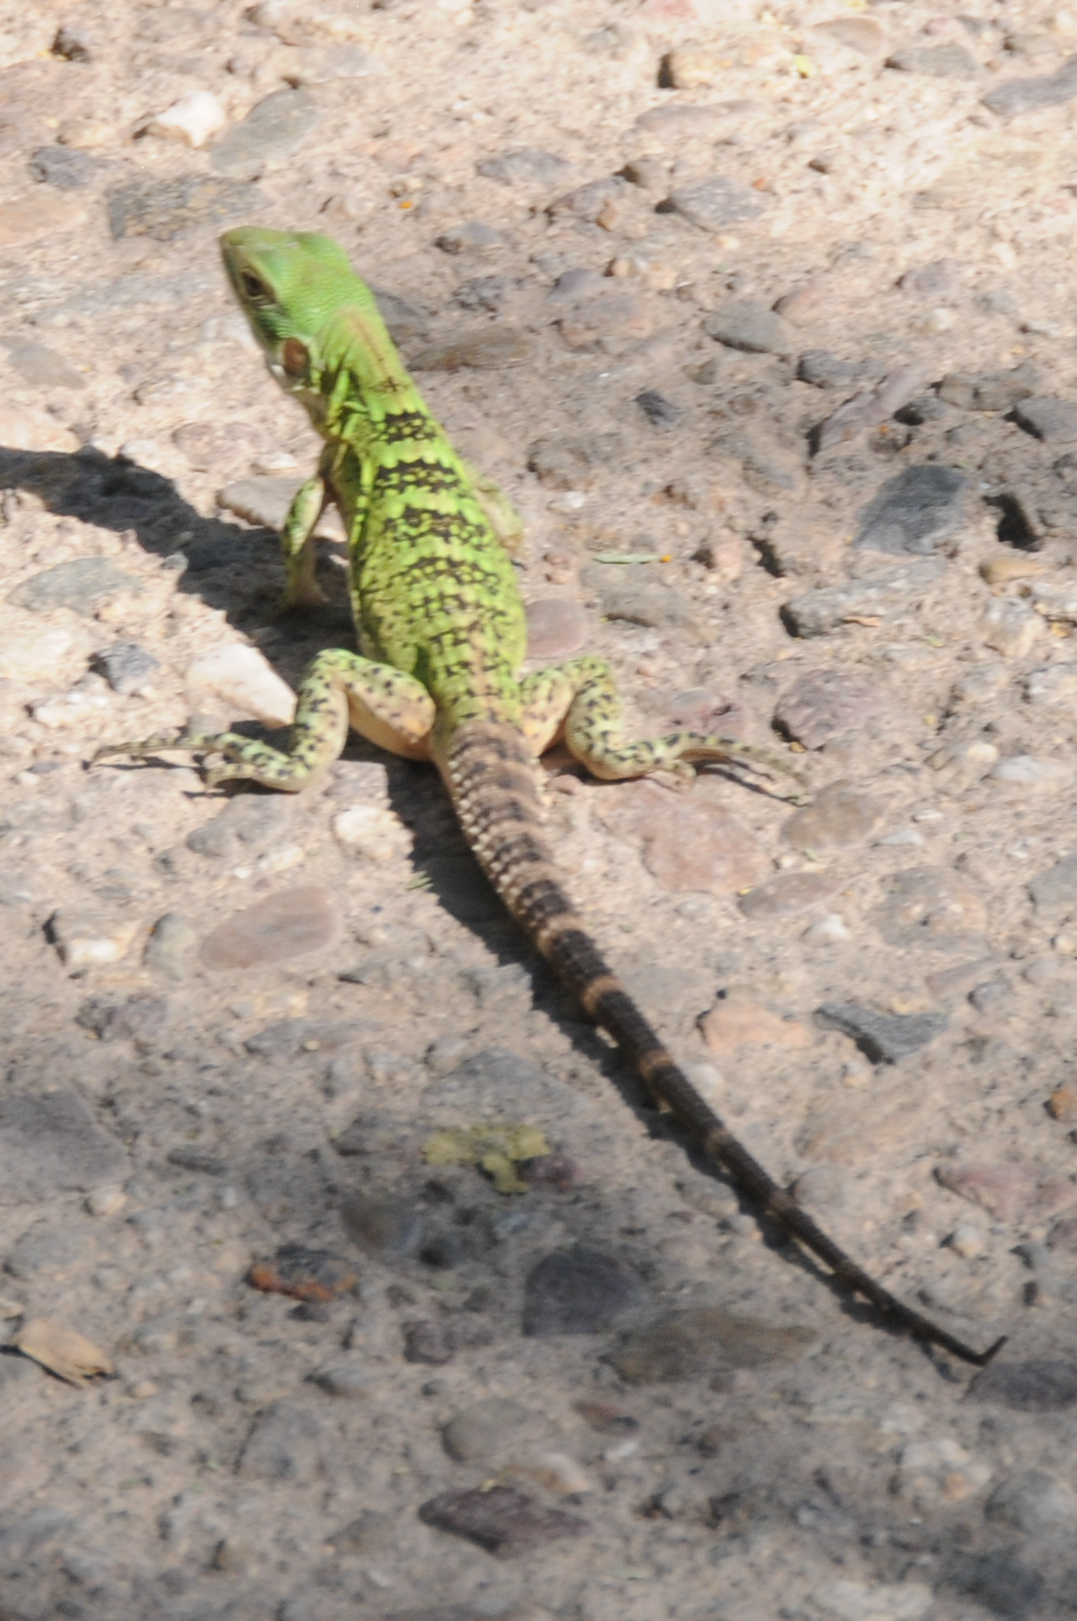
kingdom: Animalia
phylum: Chordata
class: Squamata
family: Iguanidae
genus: Ctenosaura
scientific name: Ctenosaura
